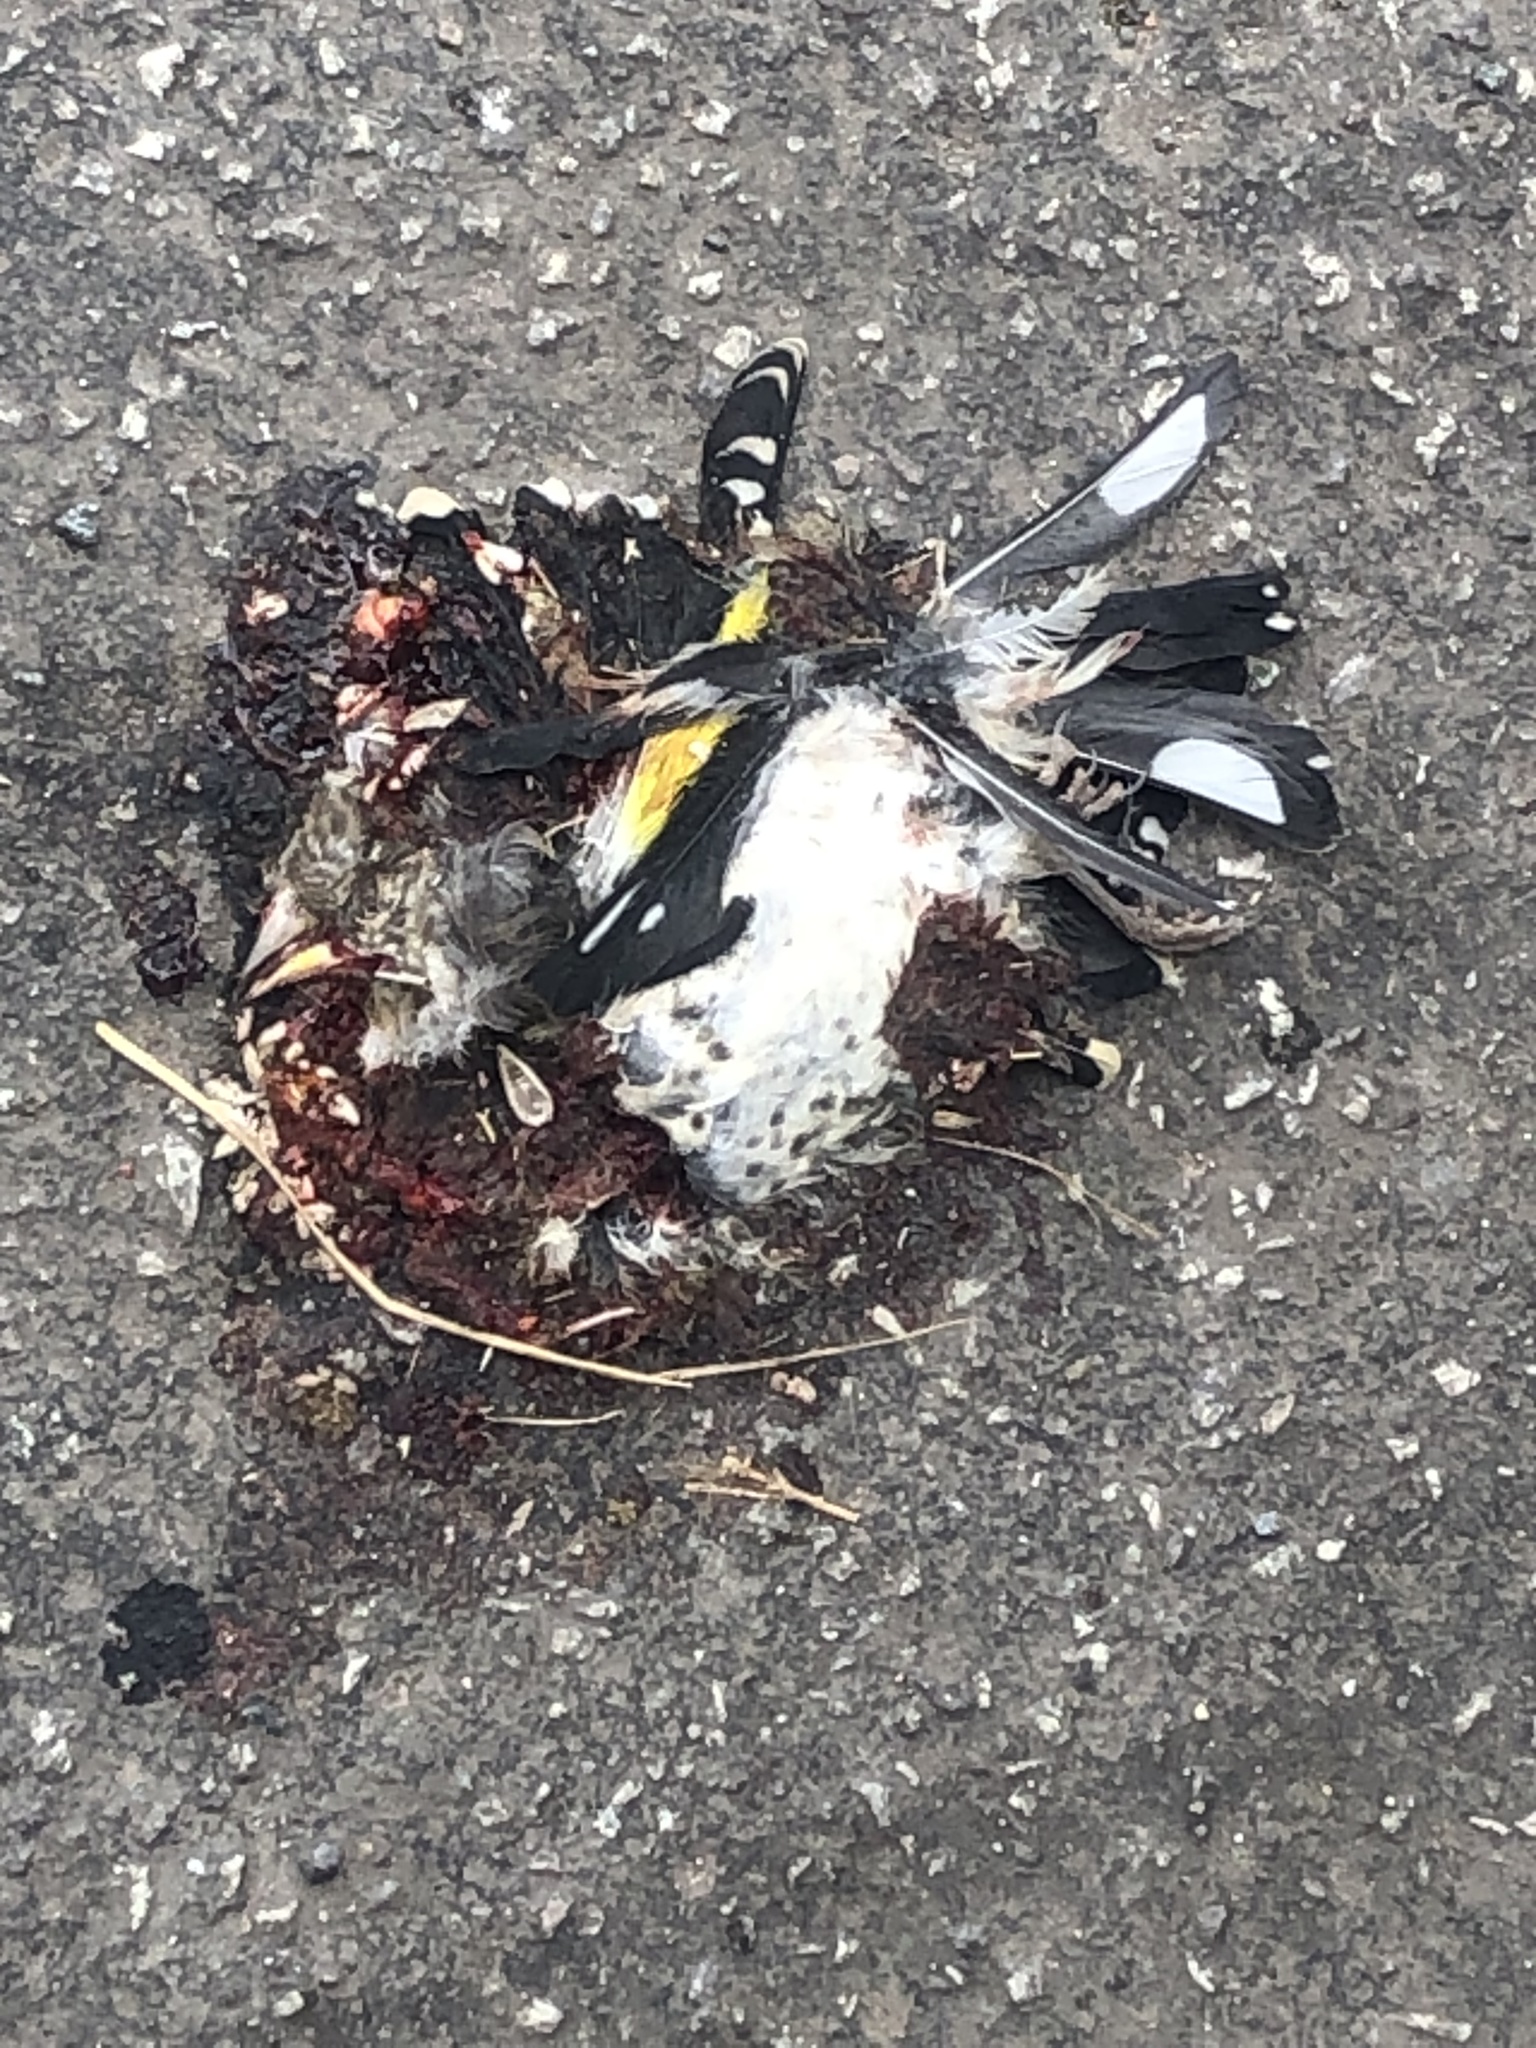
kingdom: Animalia
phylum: Chordata
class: Aves
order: Passeriformes
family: Fringillidae
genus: Carduelis
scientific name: Carduelis carduelis
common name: European goldfinch
